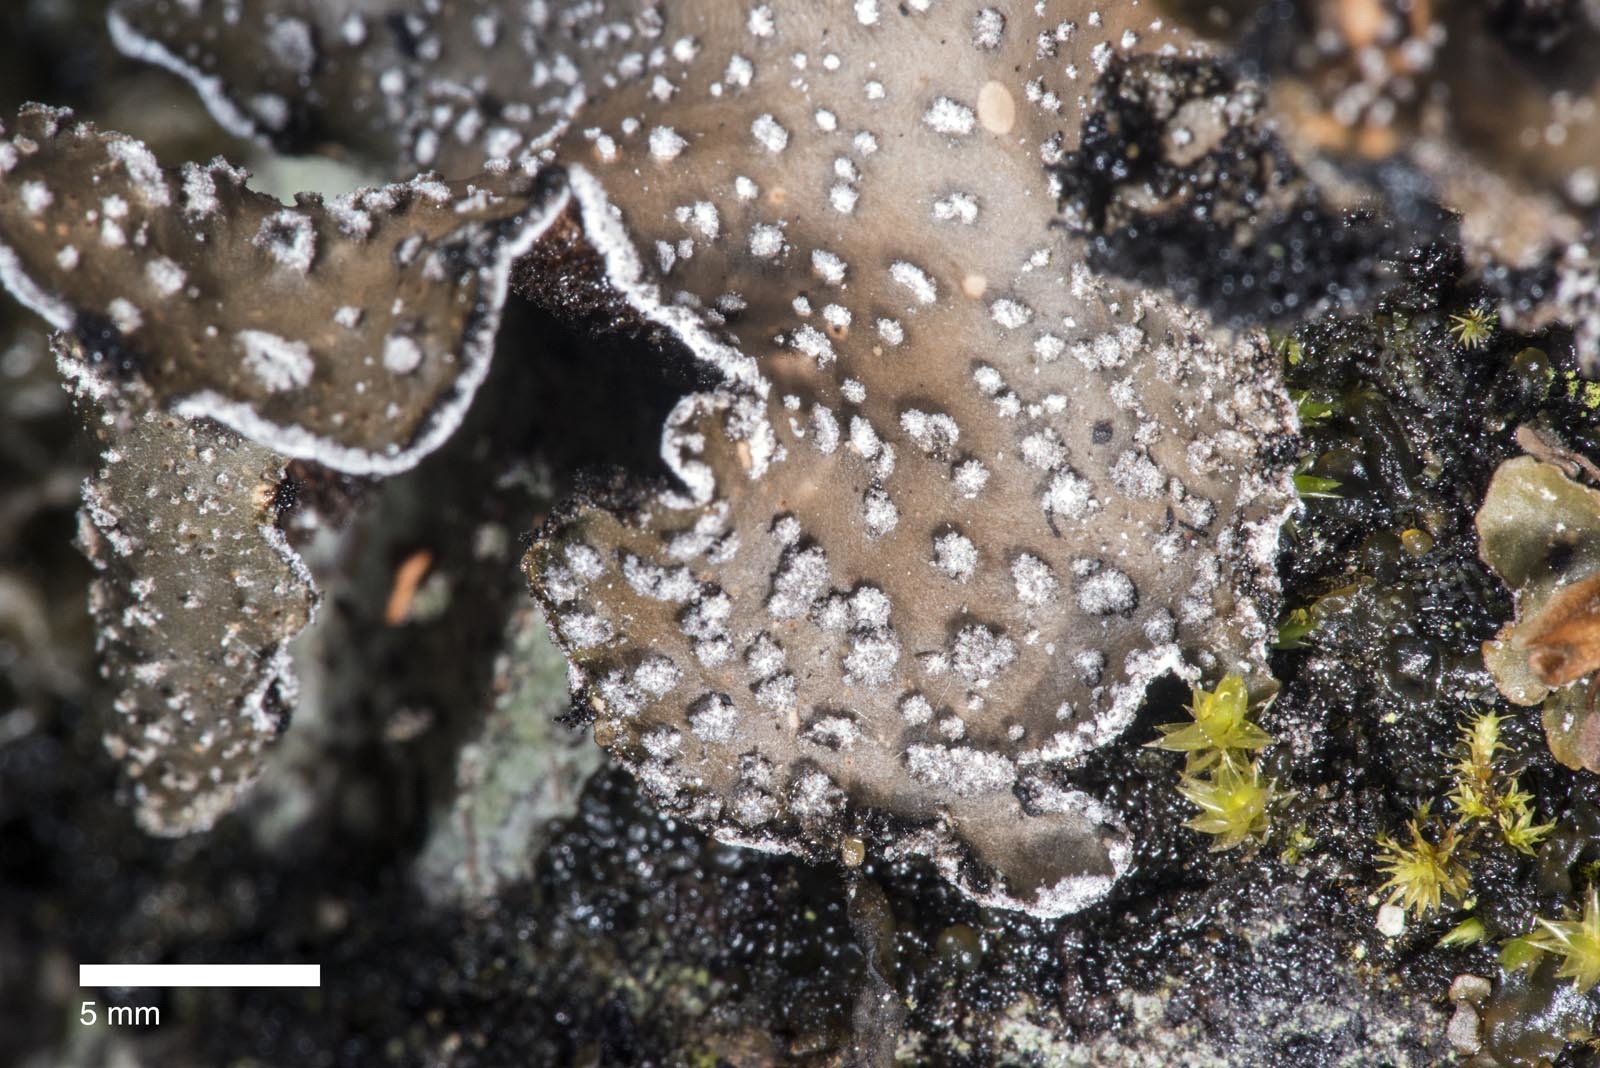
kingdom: Fungi
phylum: Ascomycota
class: Lecanoromycetes
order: Peltigerales
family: Lobariaceae
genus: Pseudocyphellaria
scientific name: Pseudocyphellaria intricata
